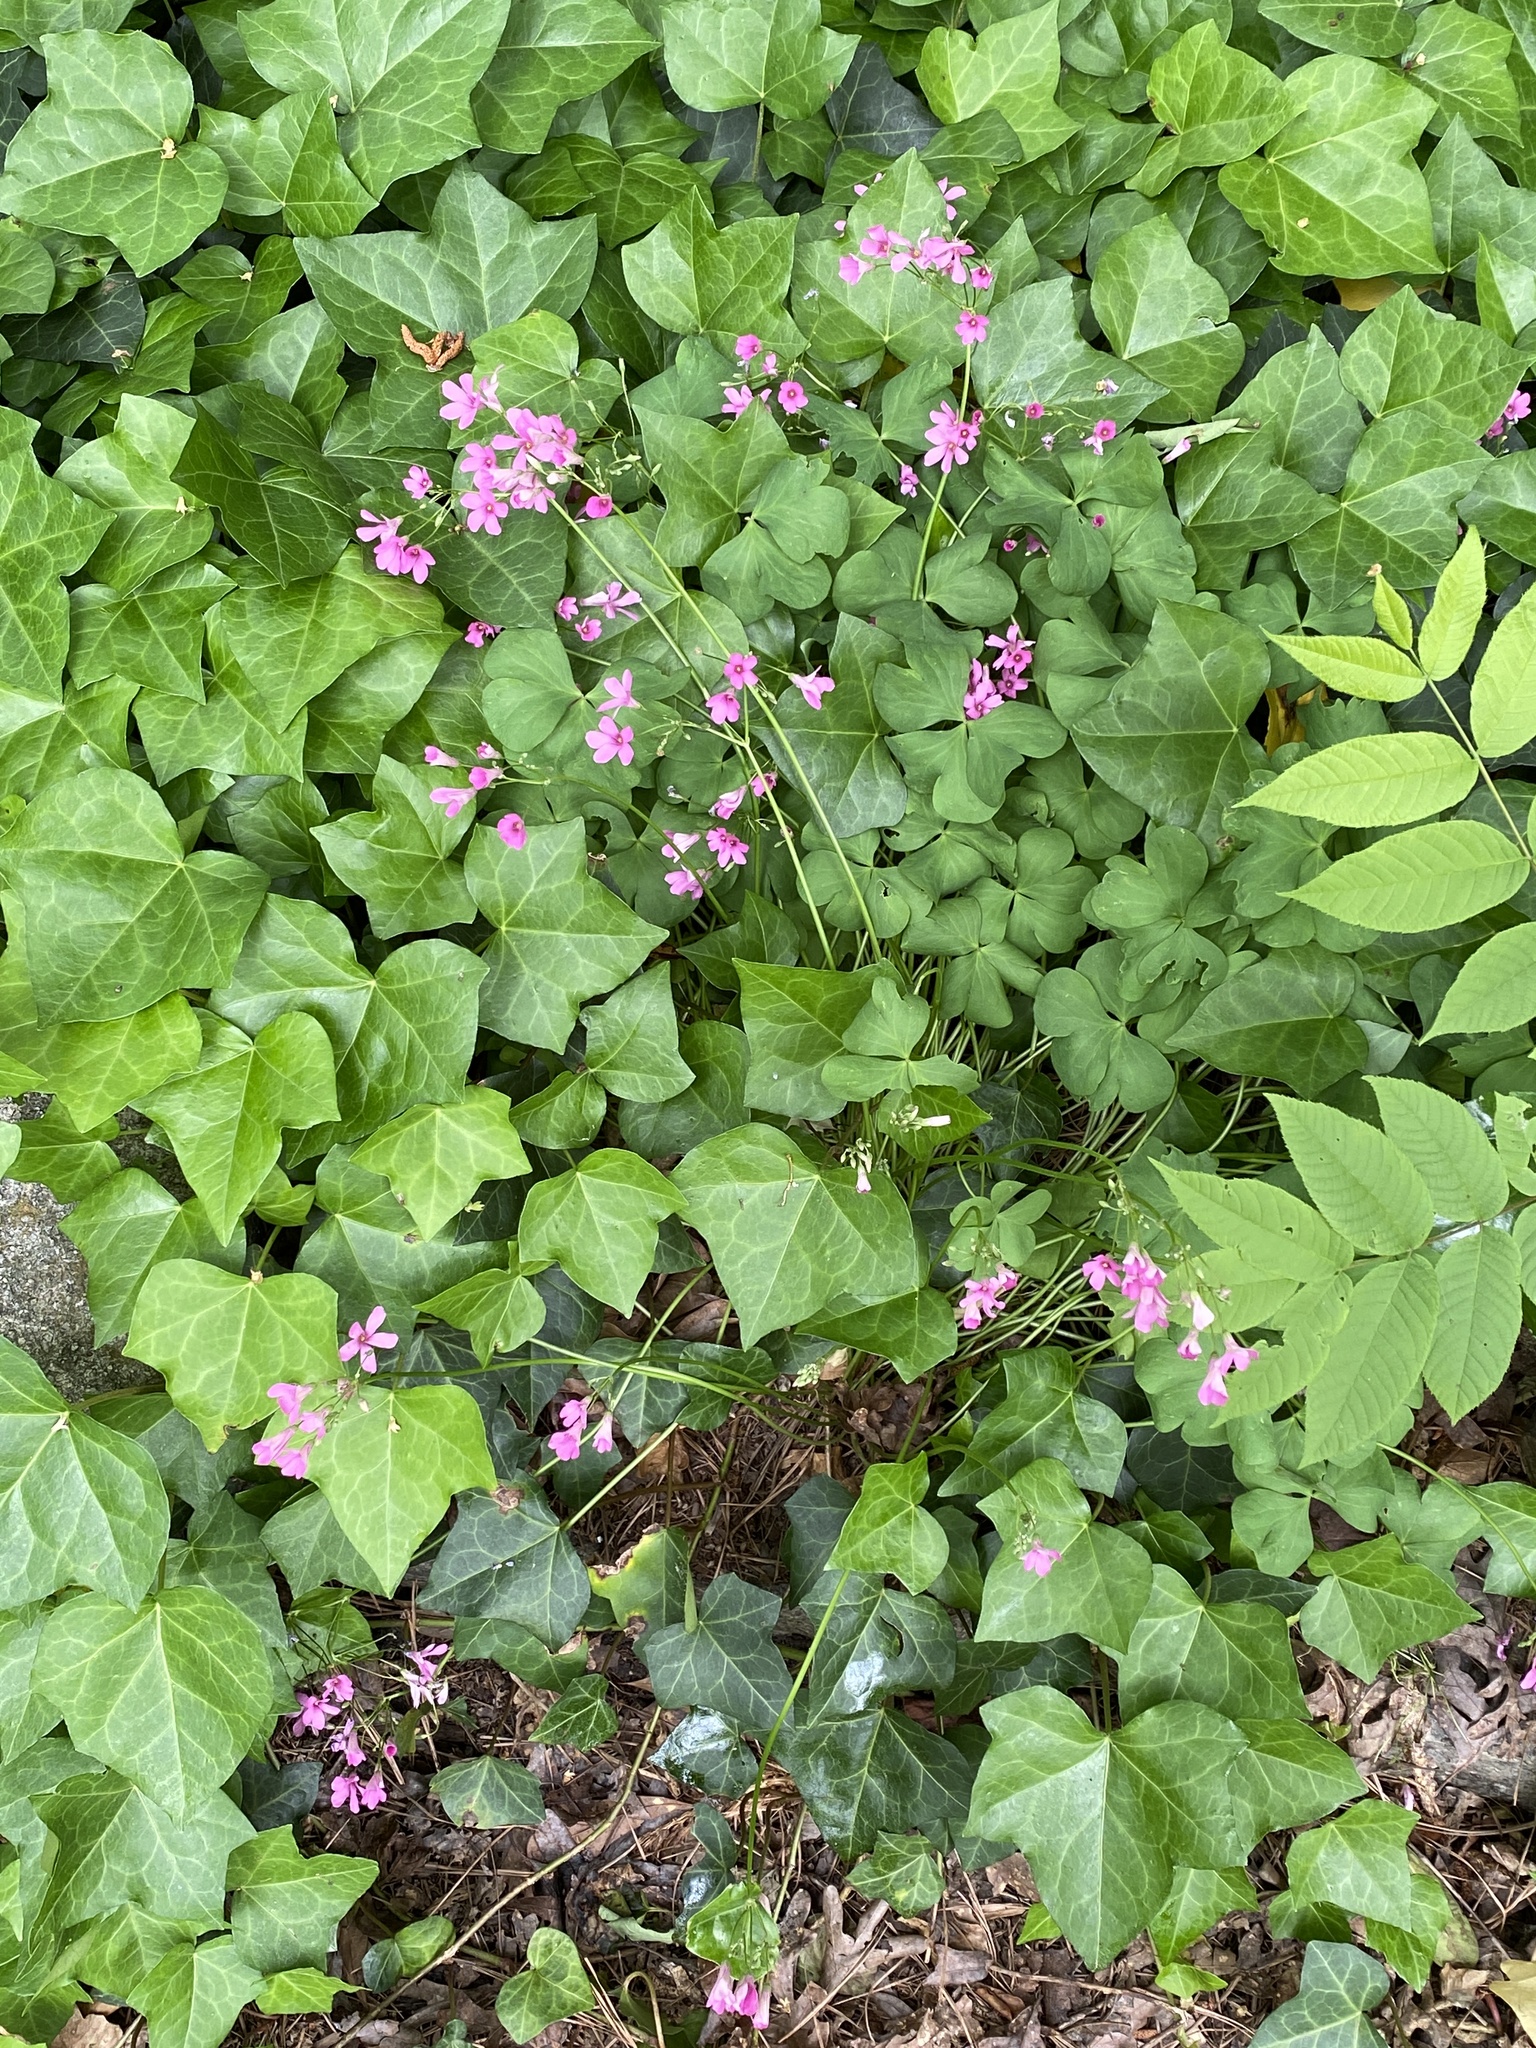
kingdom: Plantae
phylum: Tracheophyta
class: Magnoliopsida
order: Oxalidales
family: Oxalidaceae
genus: Oxalis
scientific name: Oxalis articulata
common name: Pink-sorrel
